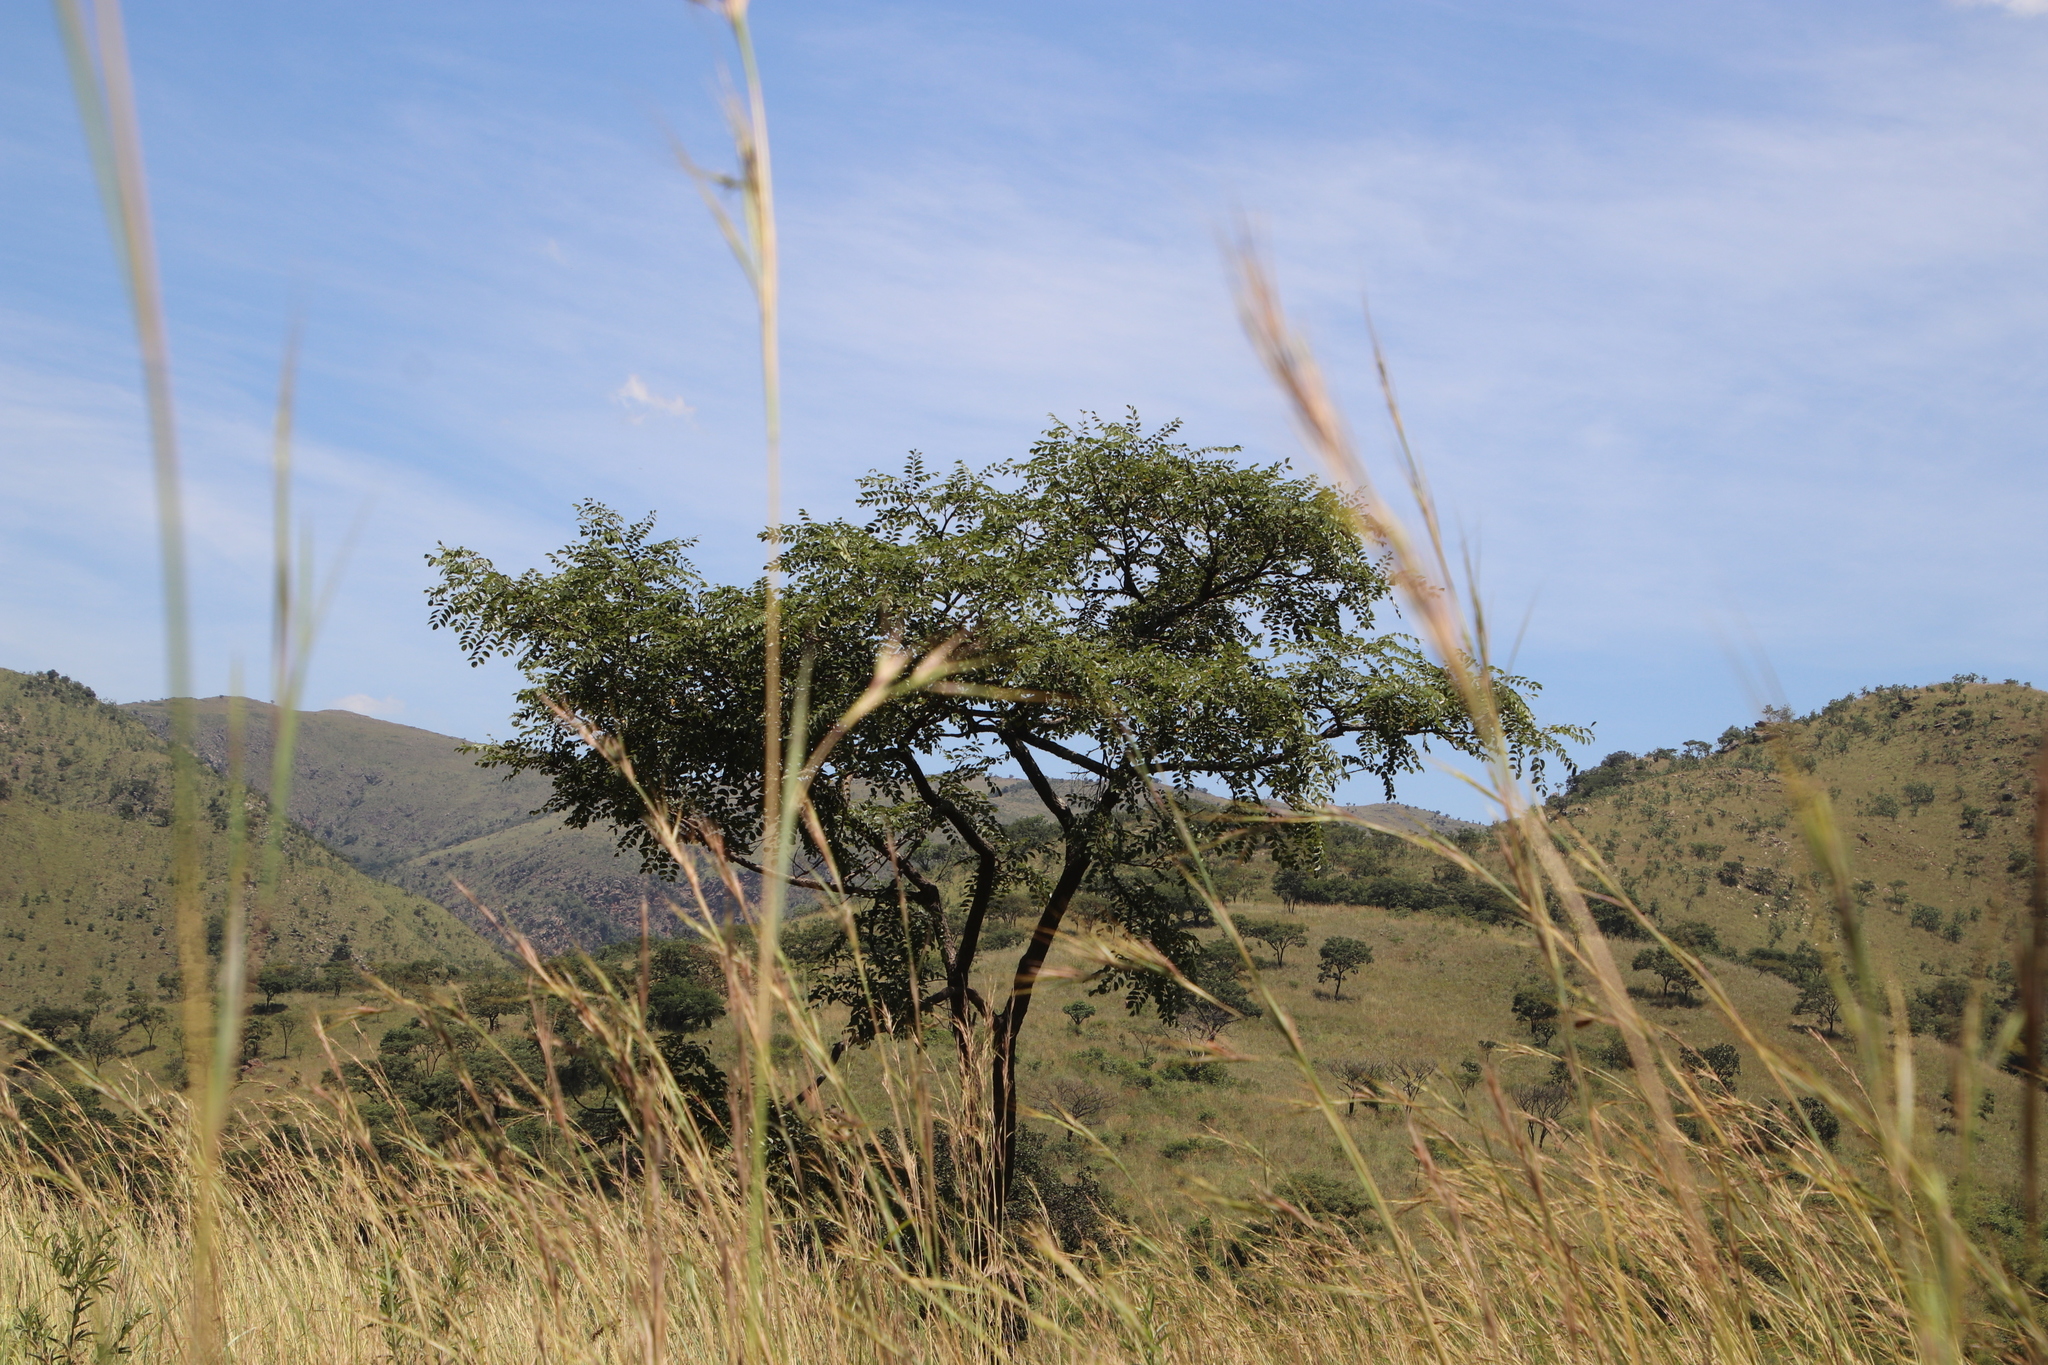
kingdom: Plantae
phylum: Tracheophyta
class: Magnoliopsida
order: Fabales
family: Fabaceae
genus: Pterocarpus
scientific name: Pterocarpus angolensis
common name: Bloodwood tree
